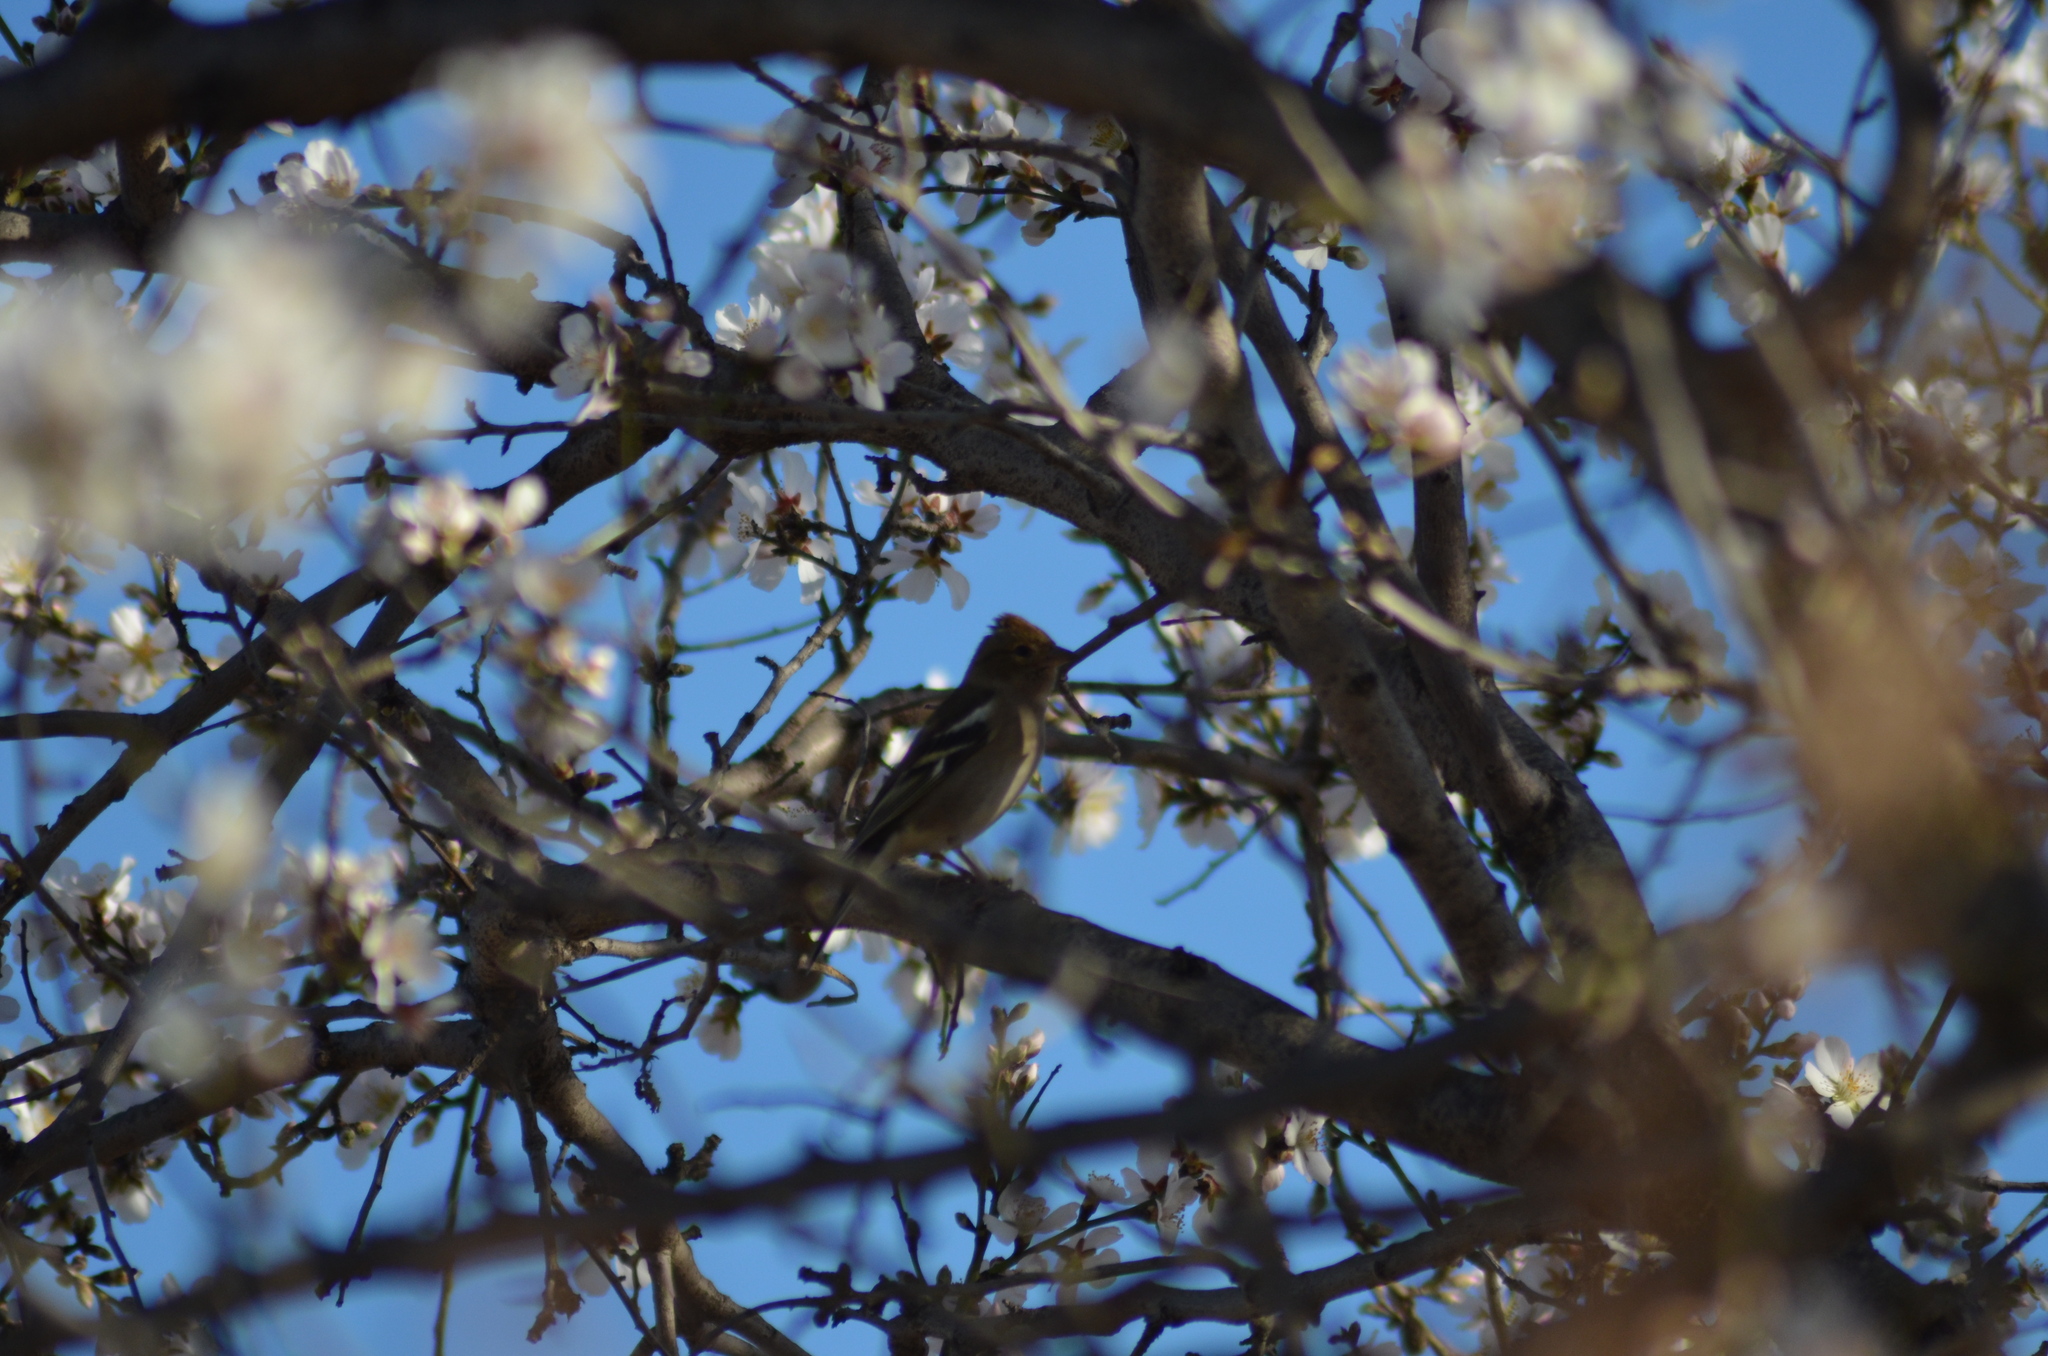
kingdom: Animalia
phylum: Chordata
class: Aves
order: Passeriformes
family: Fringillidae
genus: Fringilla
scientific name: Fringilla coelebs
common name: Common chaffinch
